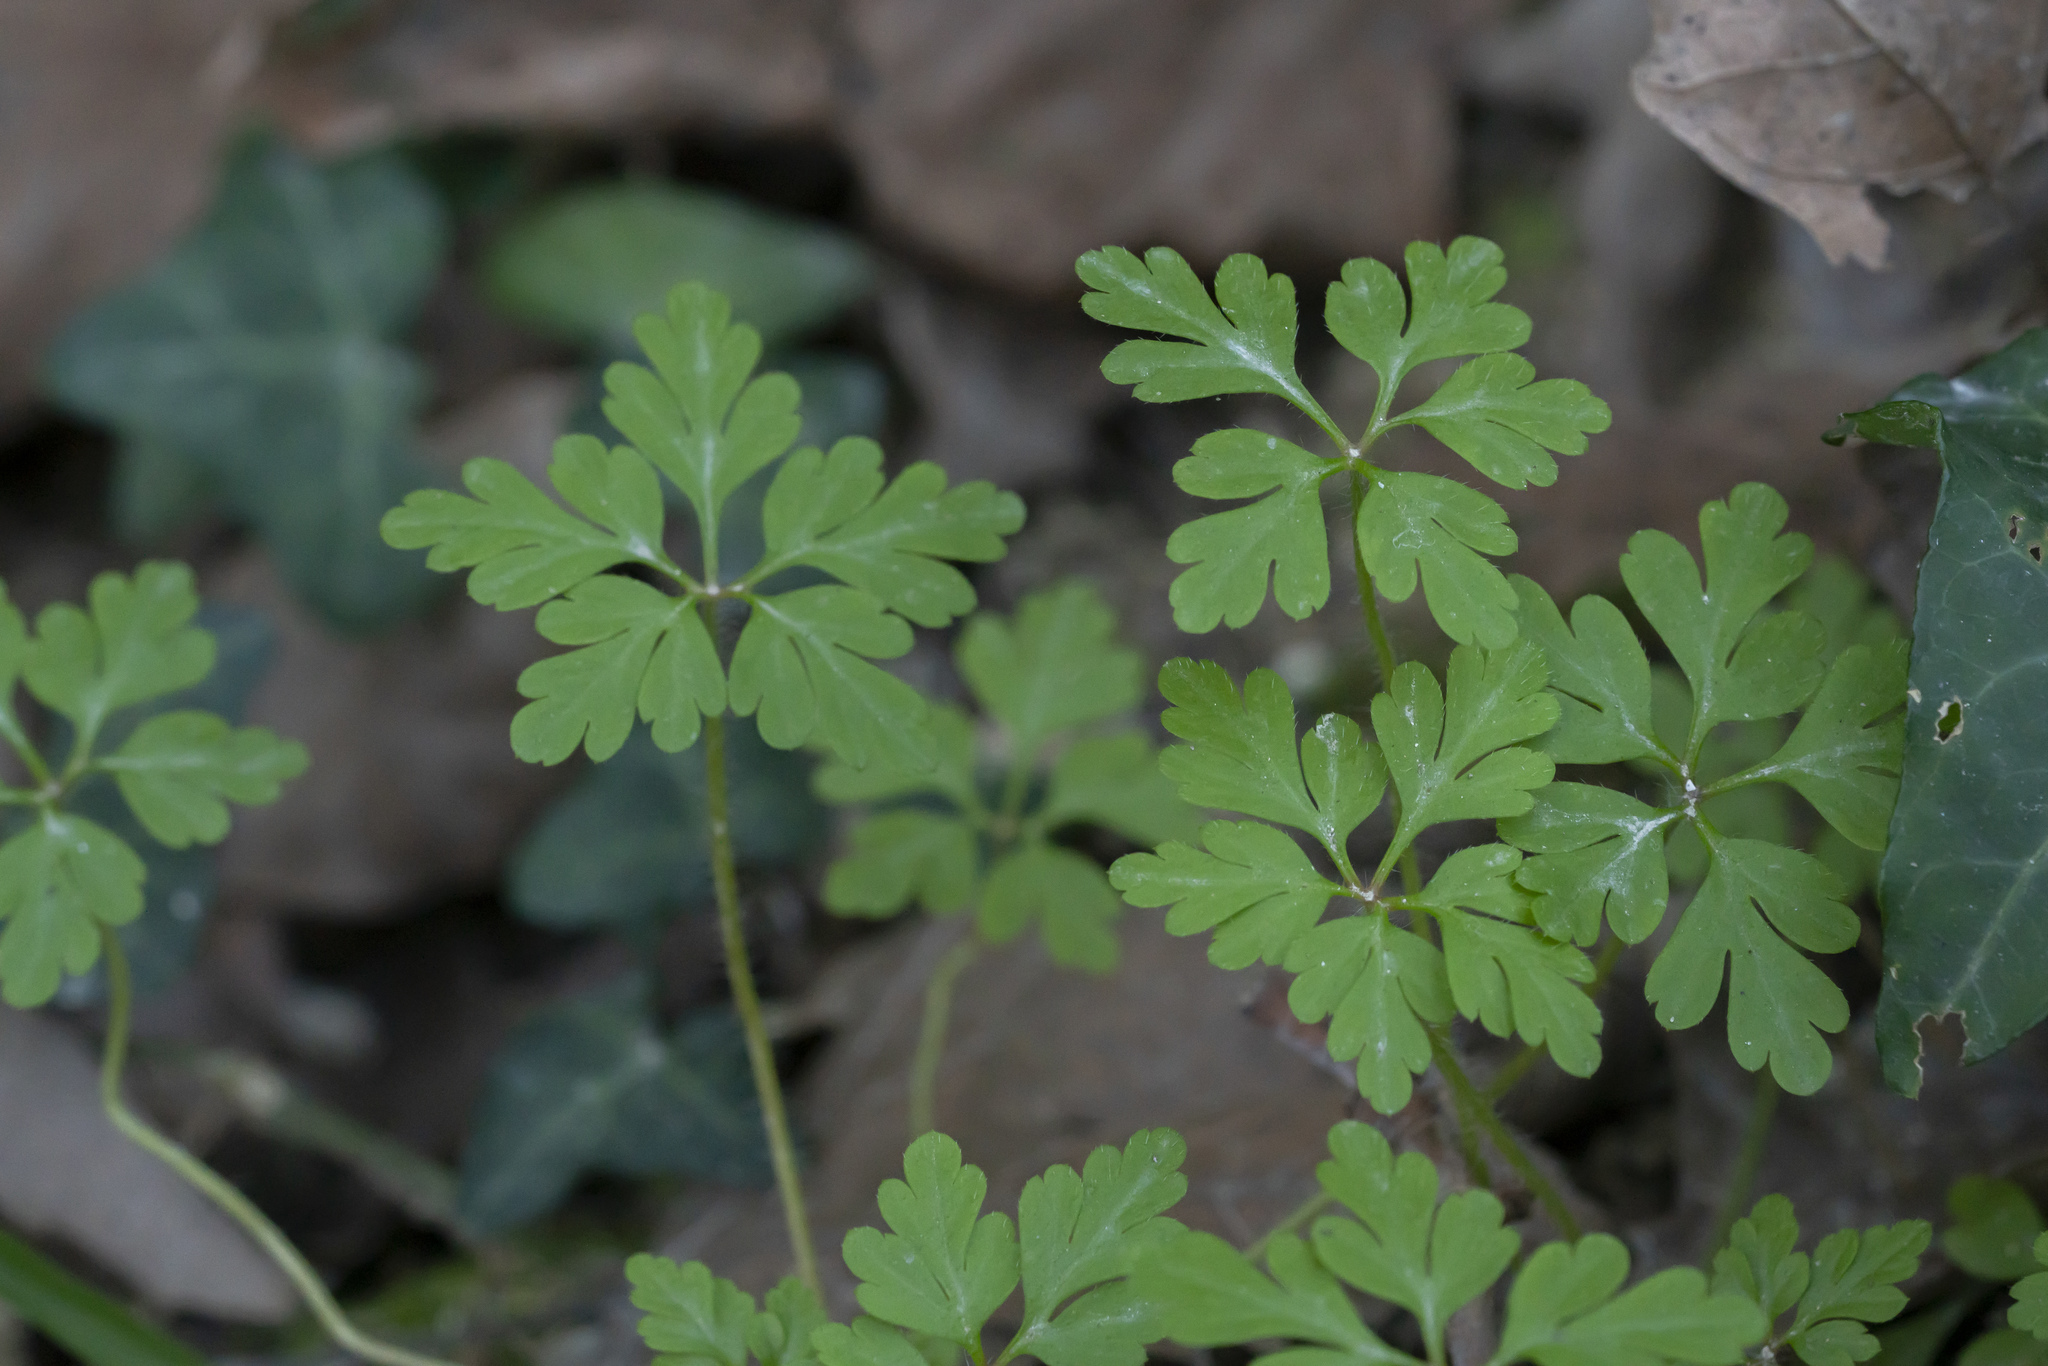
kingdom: Plantae
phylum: Tracheophyta
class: Magnoliopsida
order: Geraniales
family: Geraniaceae
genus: Geranium
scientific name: Geranium purpureum
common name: Little-robin
